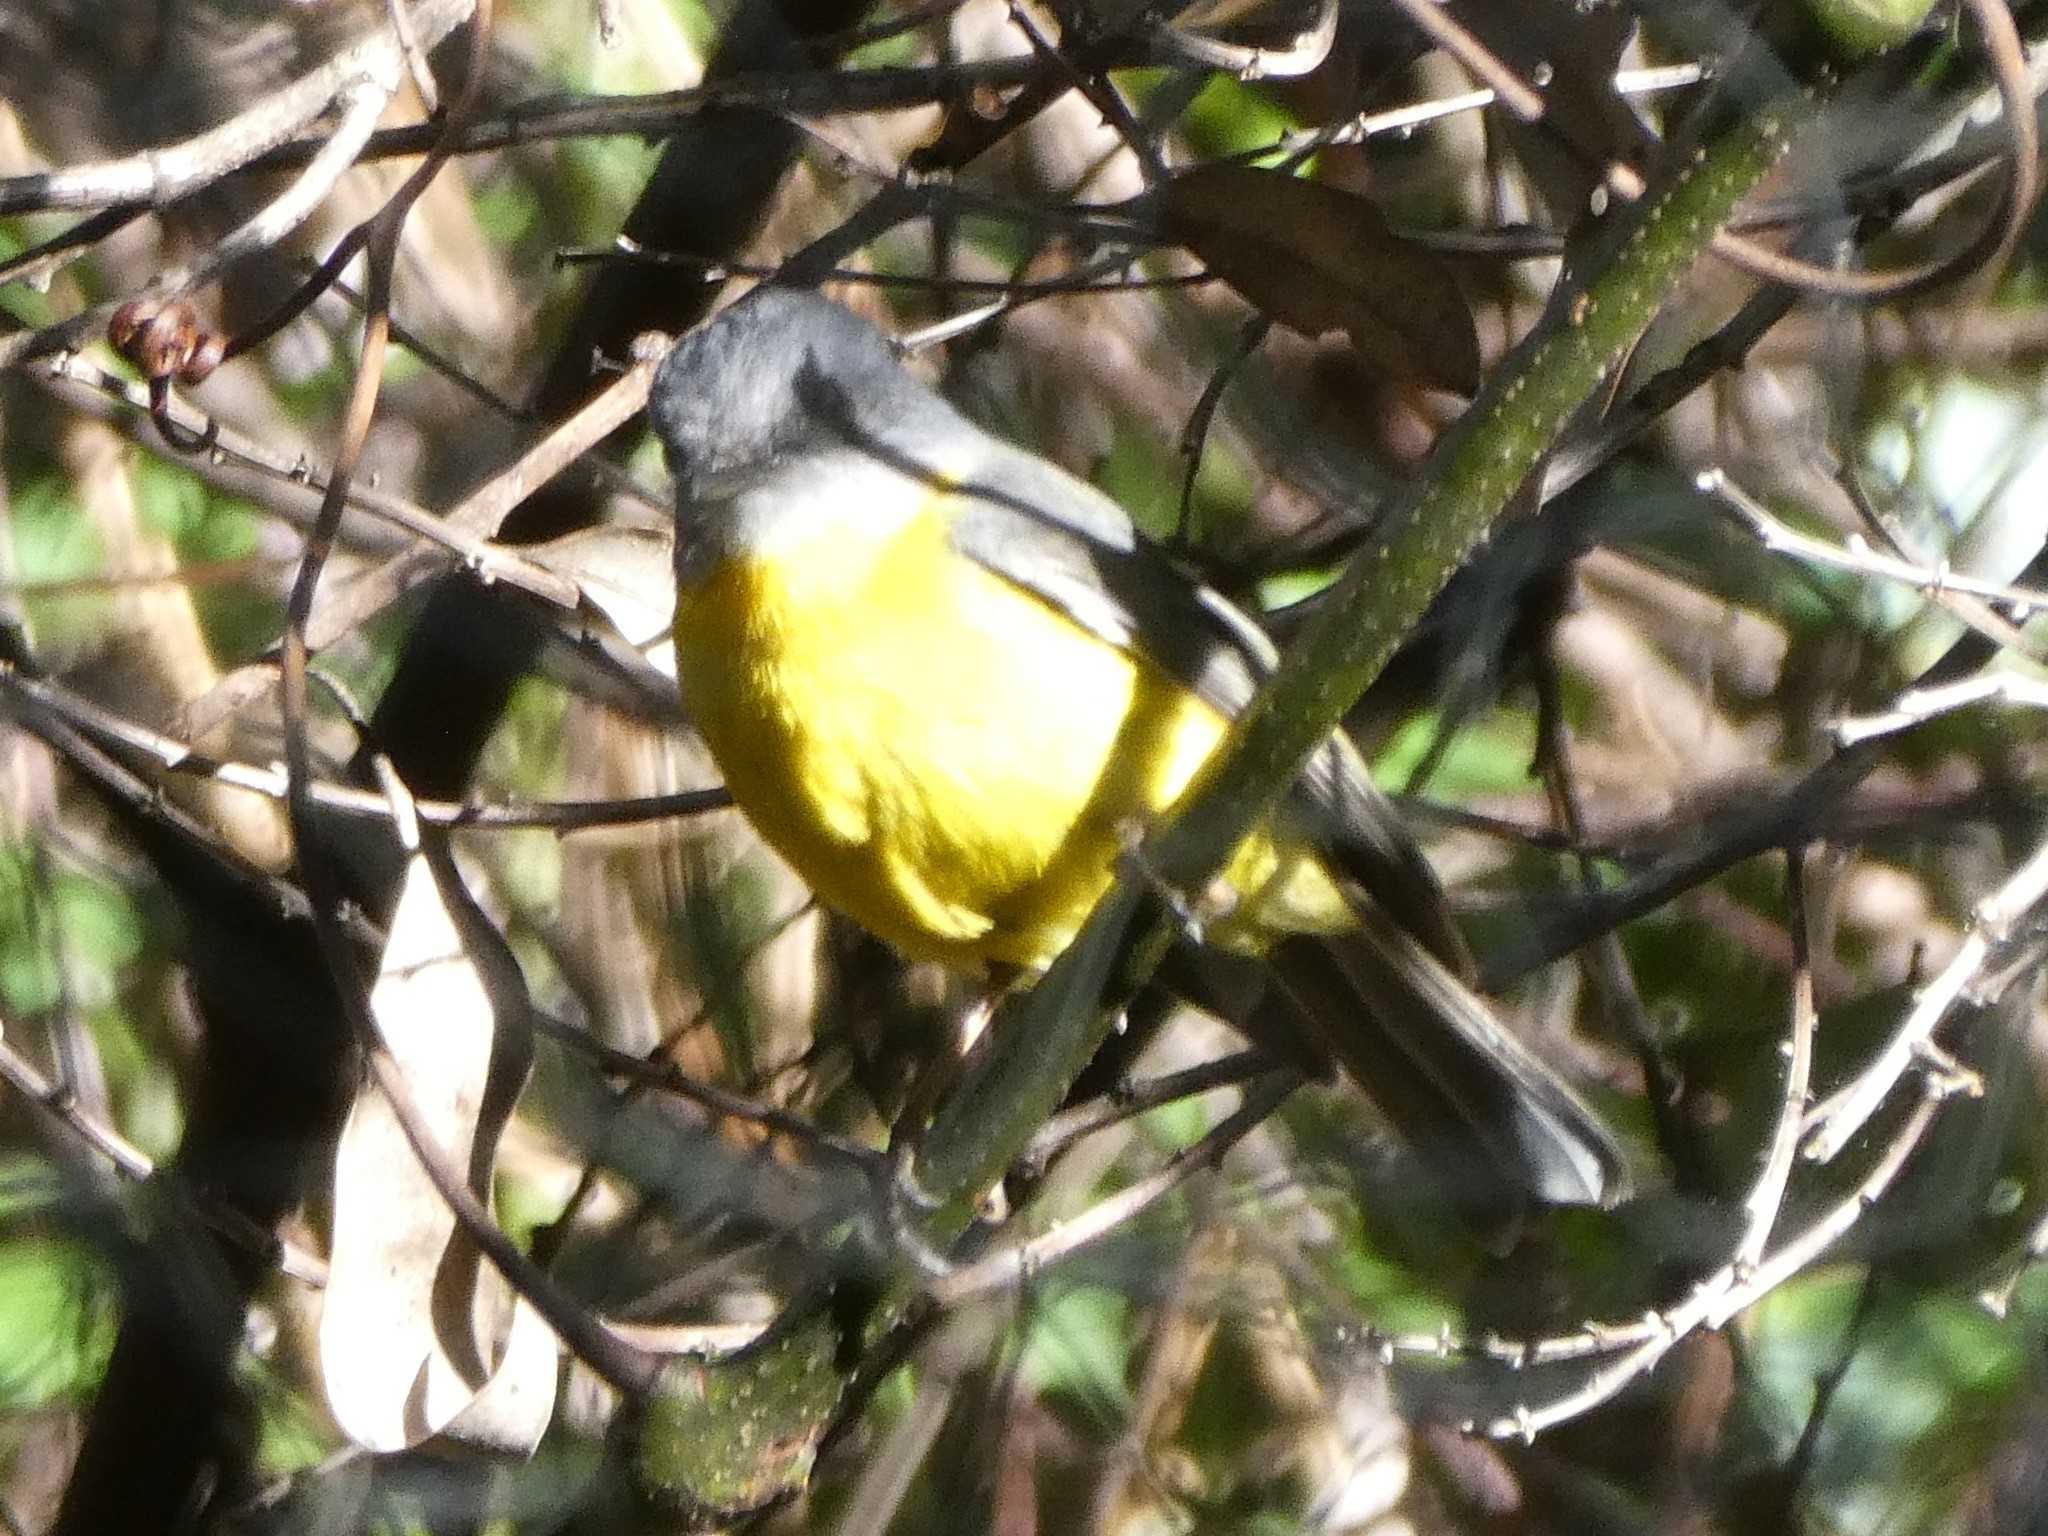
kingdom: Animalia
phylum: Chordata
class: Aves
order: Passeriformes
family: Petroicidae
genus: Eopsaltria
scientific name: Eopsaltria australis
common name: Eastern yellow robin
